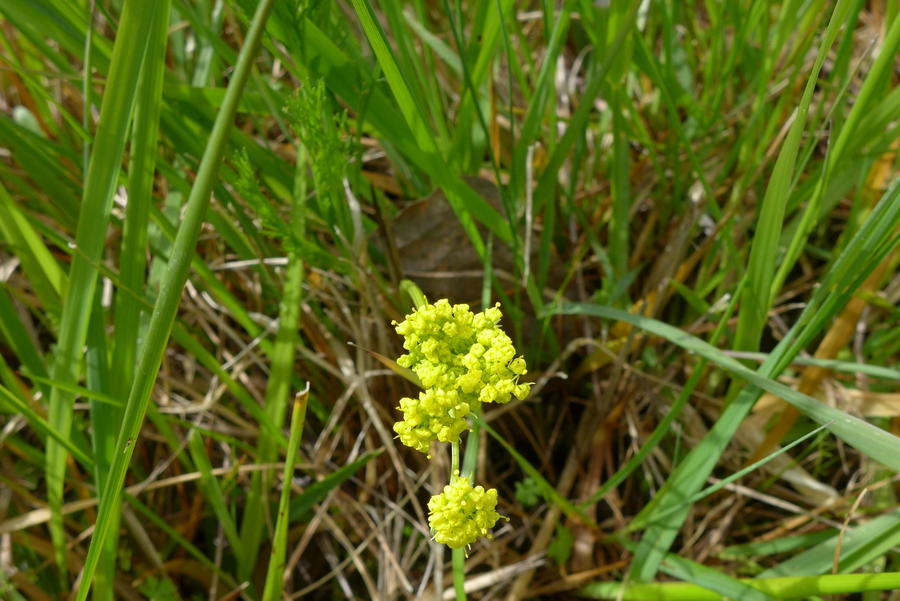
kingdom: Plantae
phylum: Tracheophyta
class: Magnoliopsida
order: Apiales
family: Apiaceae
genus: Lomatium
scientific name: Lomatium bradshawii
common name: Bradshaw's desert-parsley
